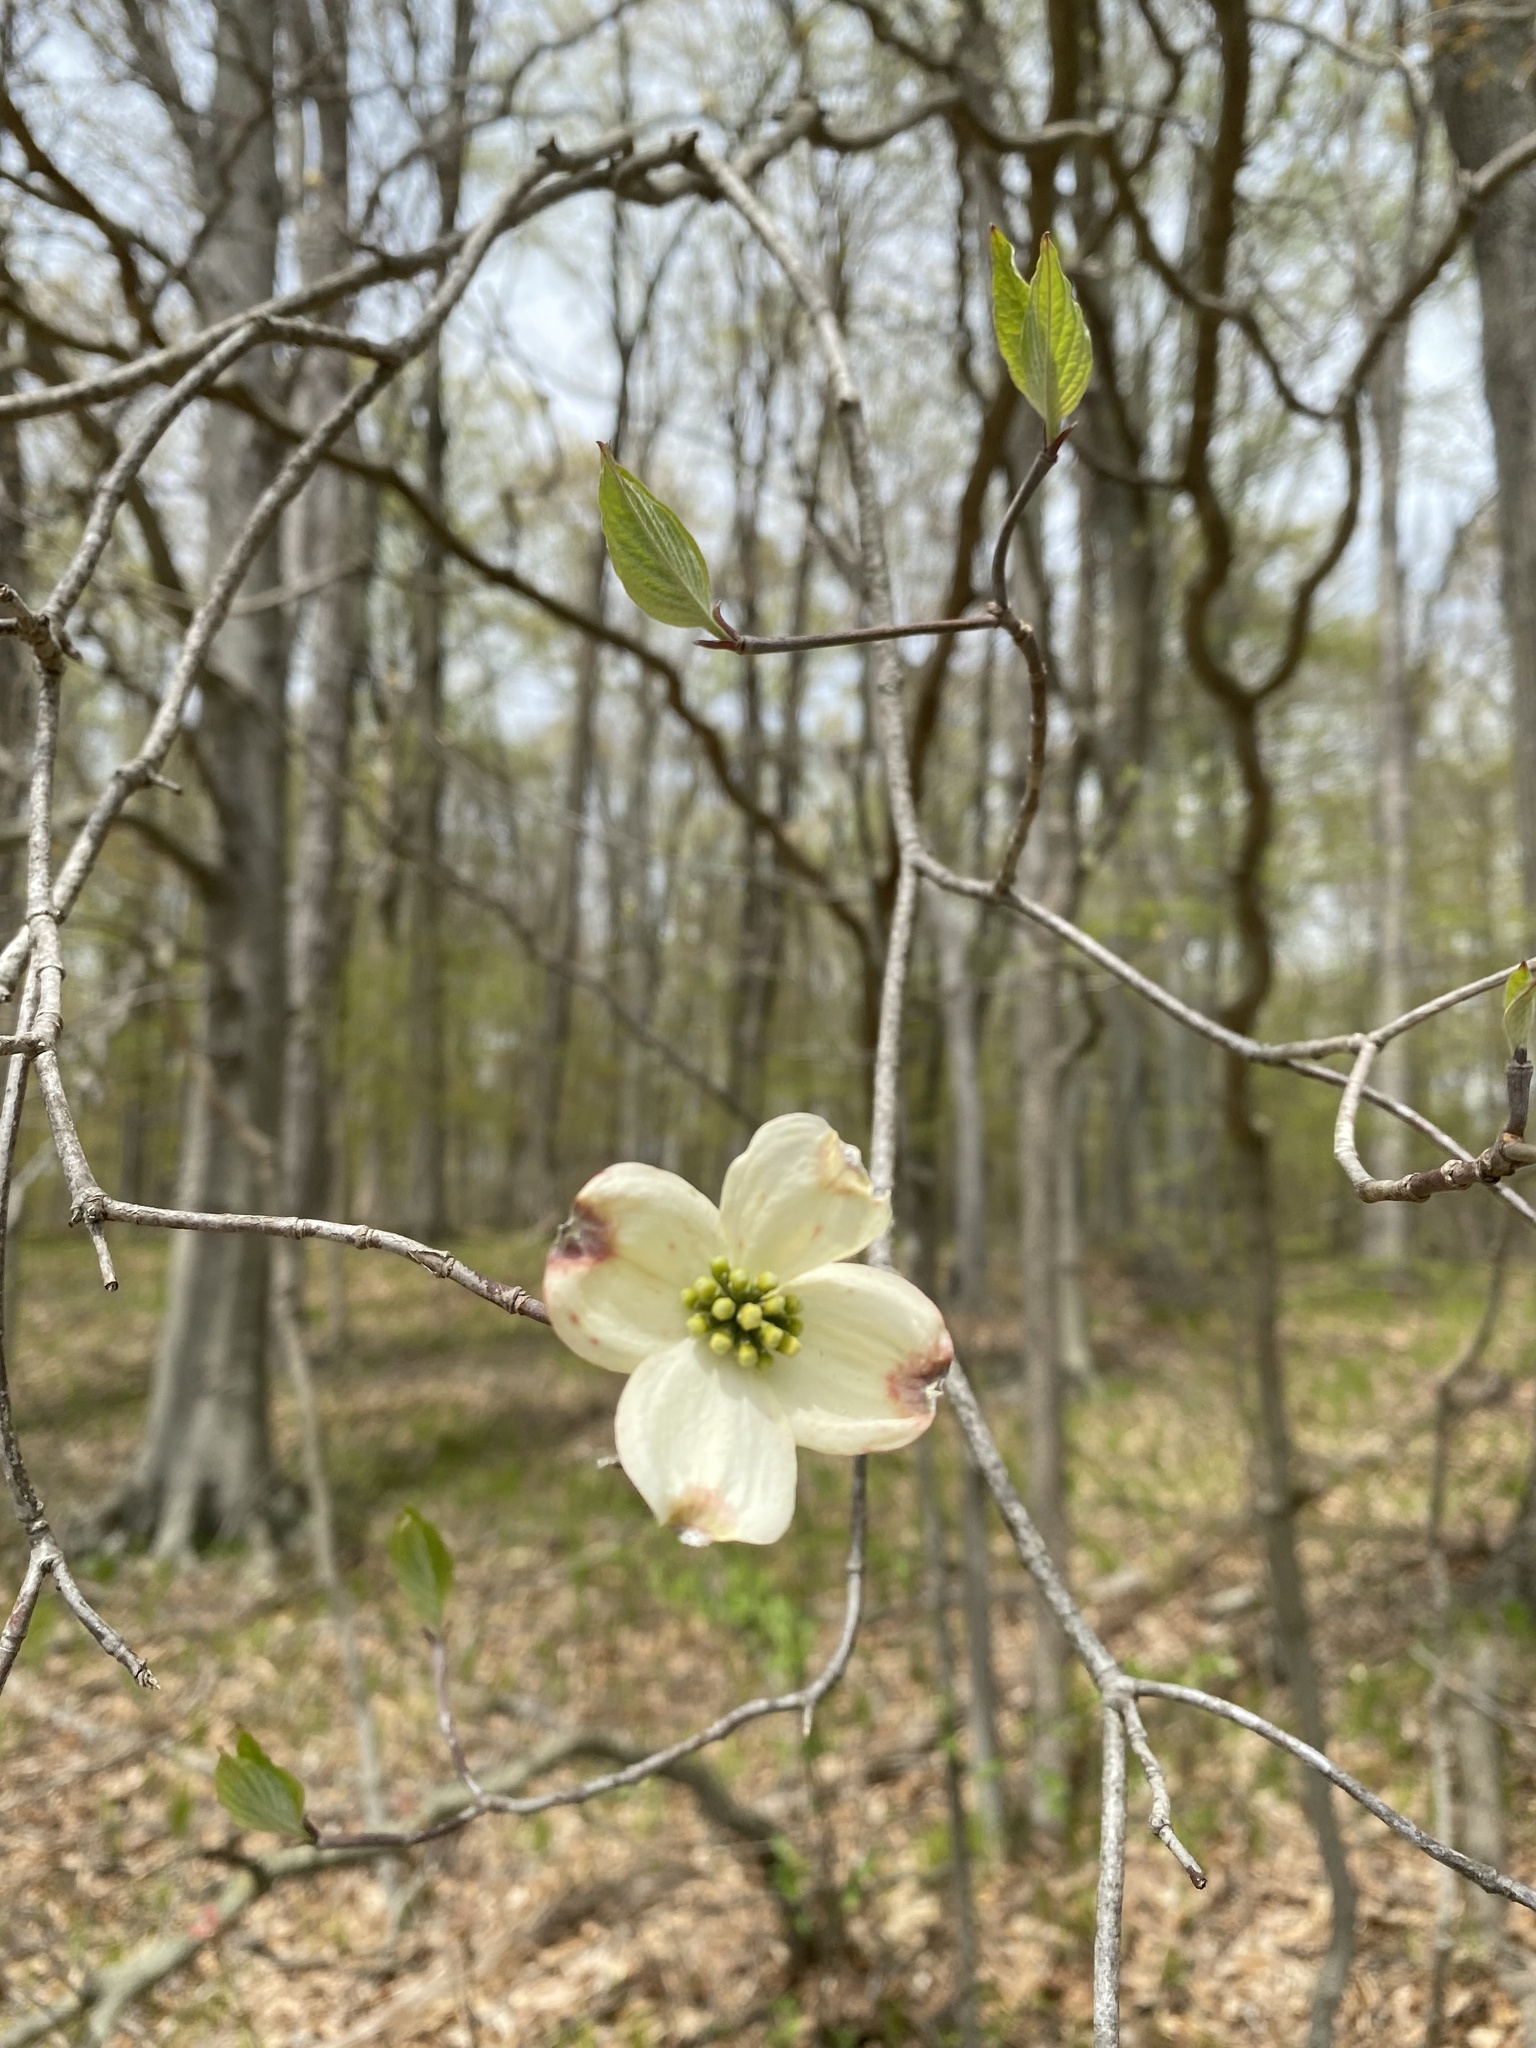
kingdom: Plantae
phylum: Tracheophyta
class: Magnoliopsida
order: Cornales
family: Cornaceae
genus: Cornus
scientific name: Cornus florida
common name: Flowering dogwood
